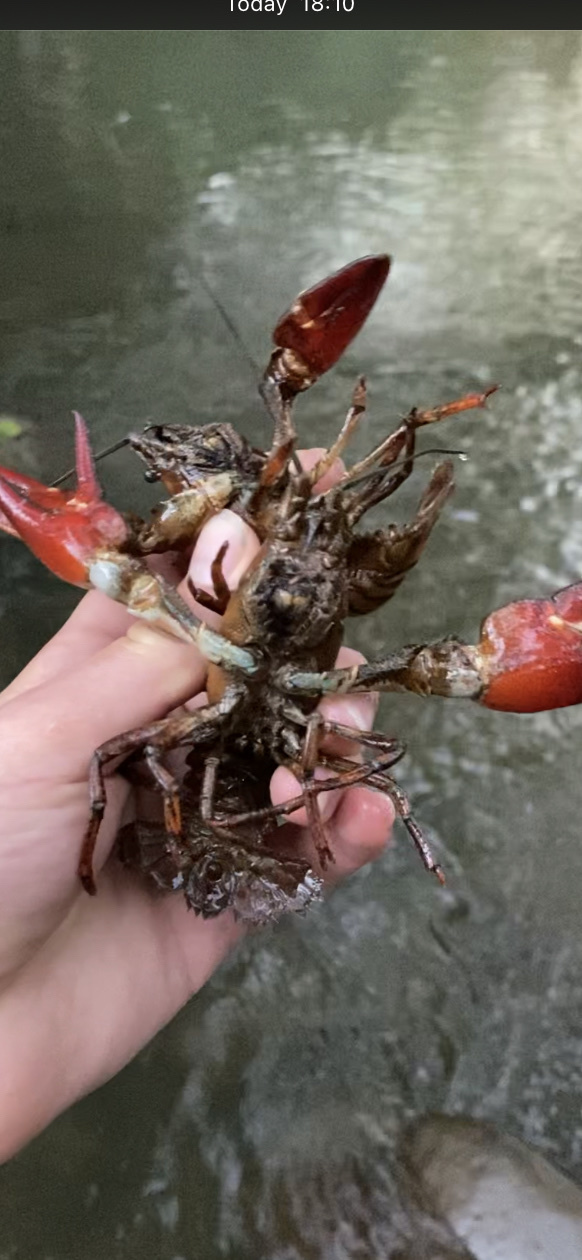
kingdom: Animalia
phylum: Arthropoda
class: Malacostraca
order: Decapoda
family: Astacidae
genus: Pacifastacus
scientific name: Pacifastacus leniusculus
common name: Signal crayfish
